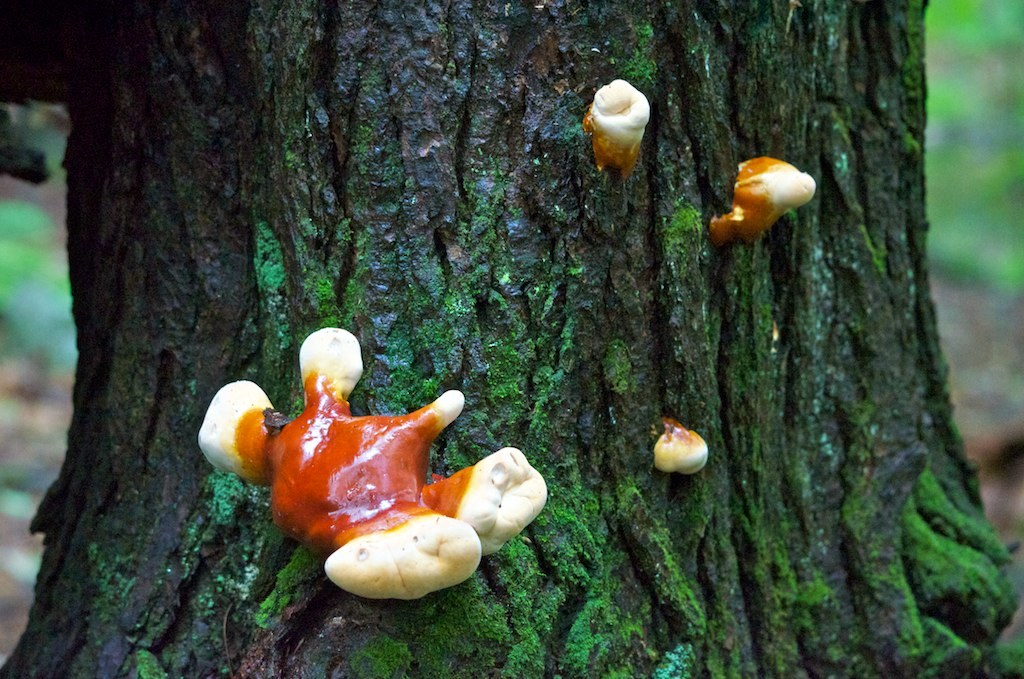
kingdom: Fungi
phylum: Basidiomycota
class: Agaricomycetes
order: Polyporales
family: Polyporaceae
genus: Ganoderma
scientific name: Ganoderma tsugae
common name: Hemlock varnish shelf
